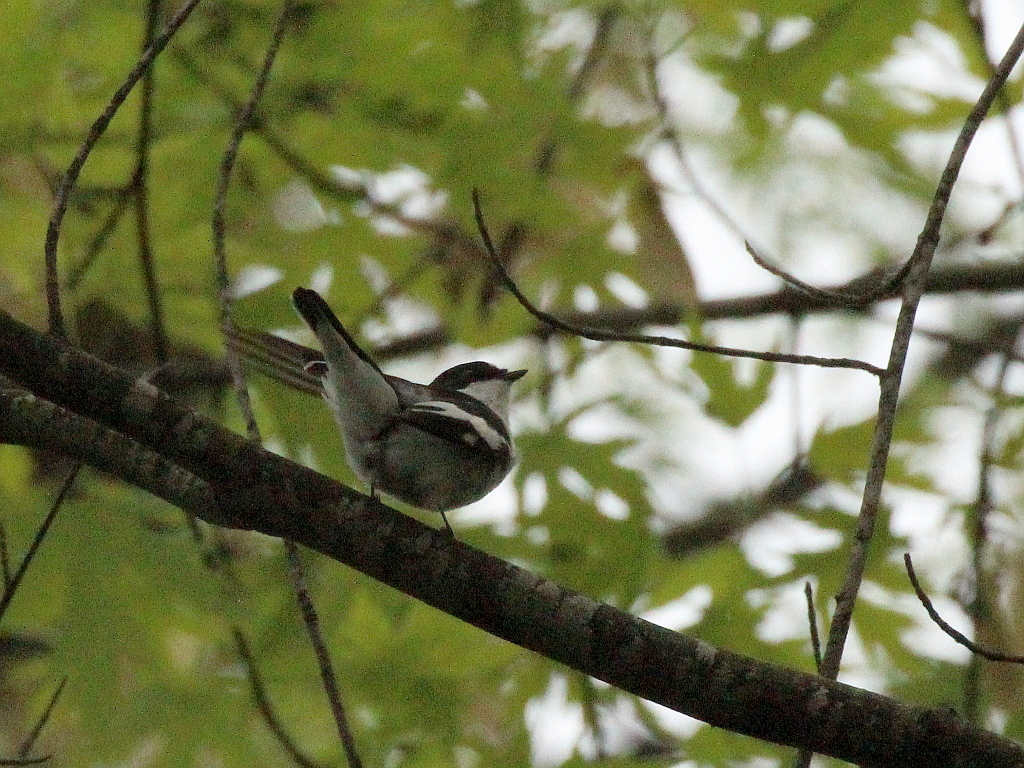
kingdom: Animalia
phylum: Chordata
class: Aves
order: Passeriformes
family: Muscicapidae
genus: Ficedula
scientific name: Ficedula semitorquata
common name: Semicollared flycatcher
